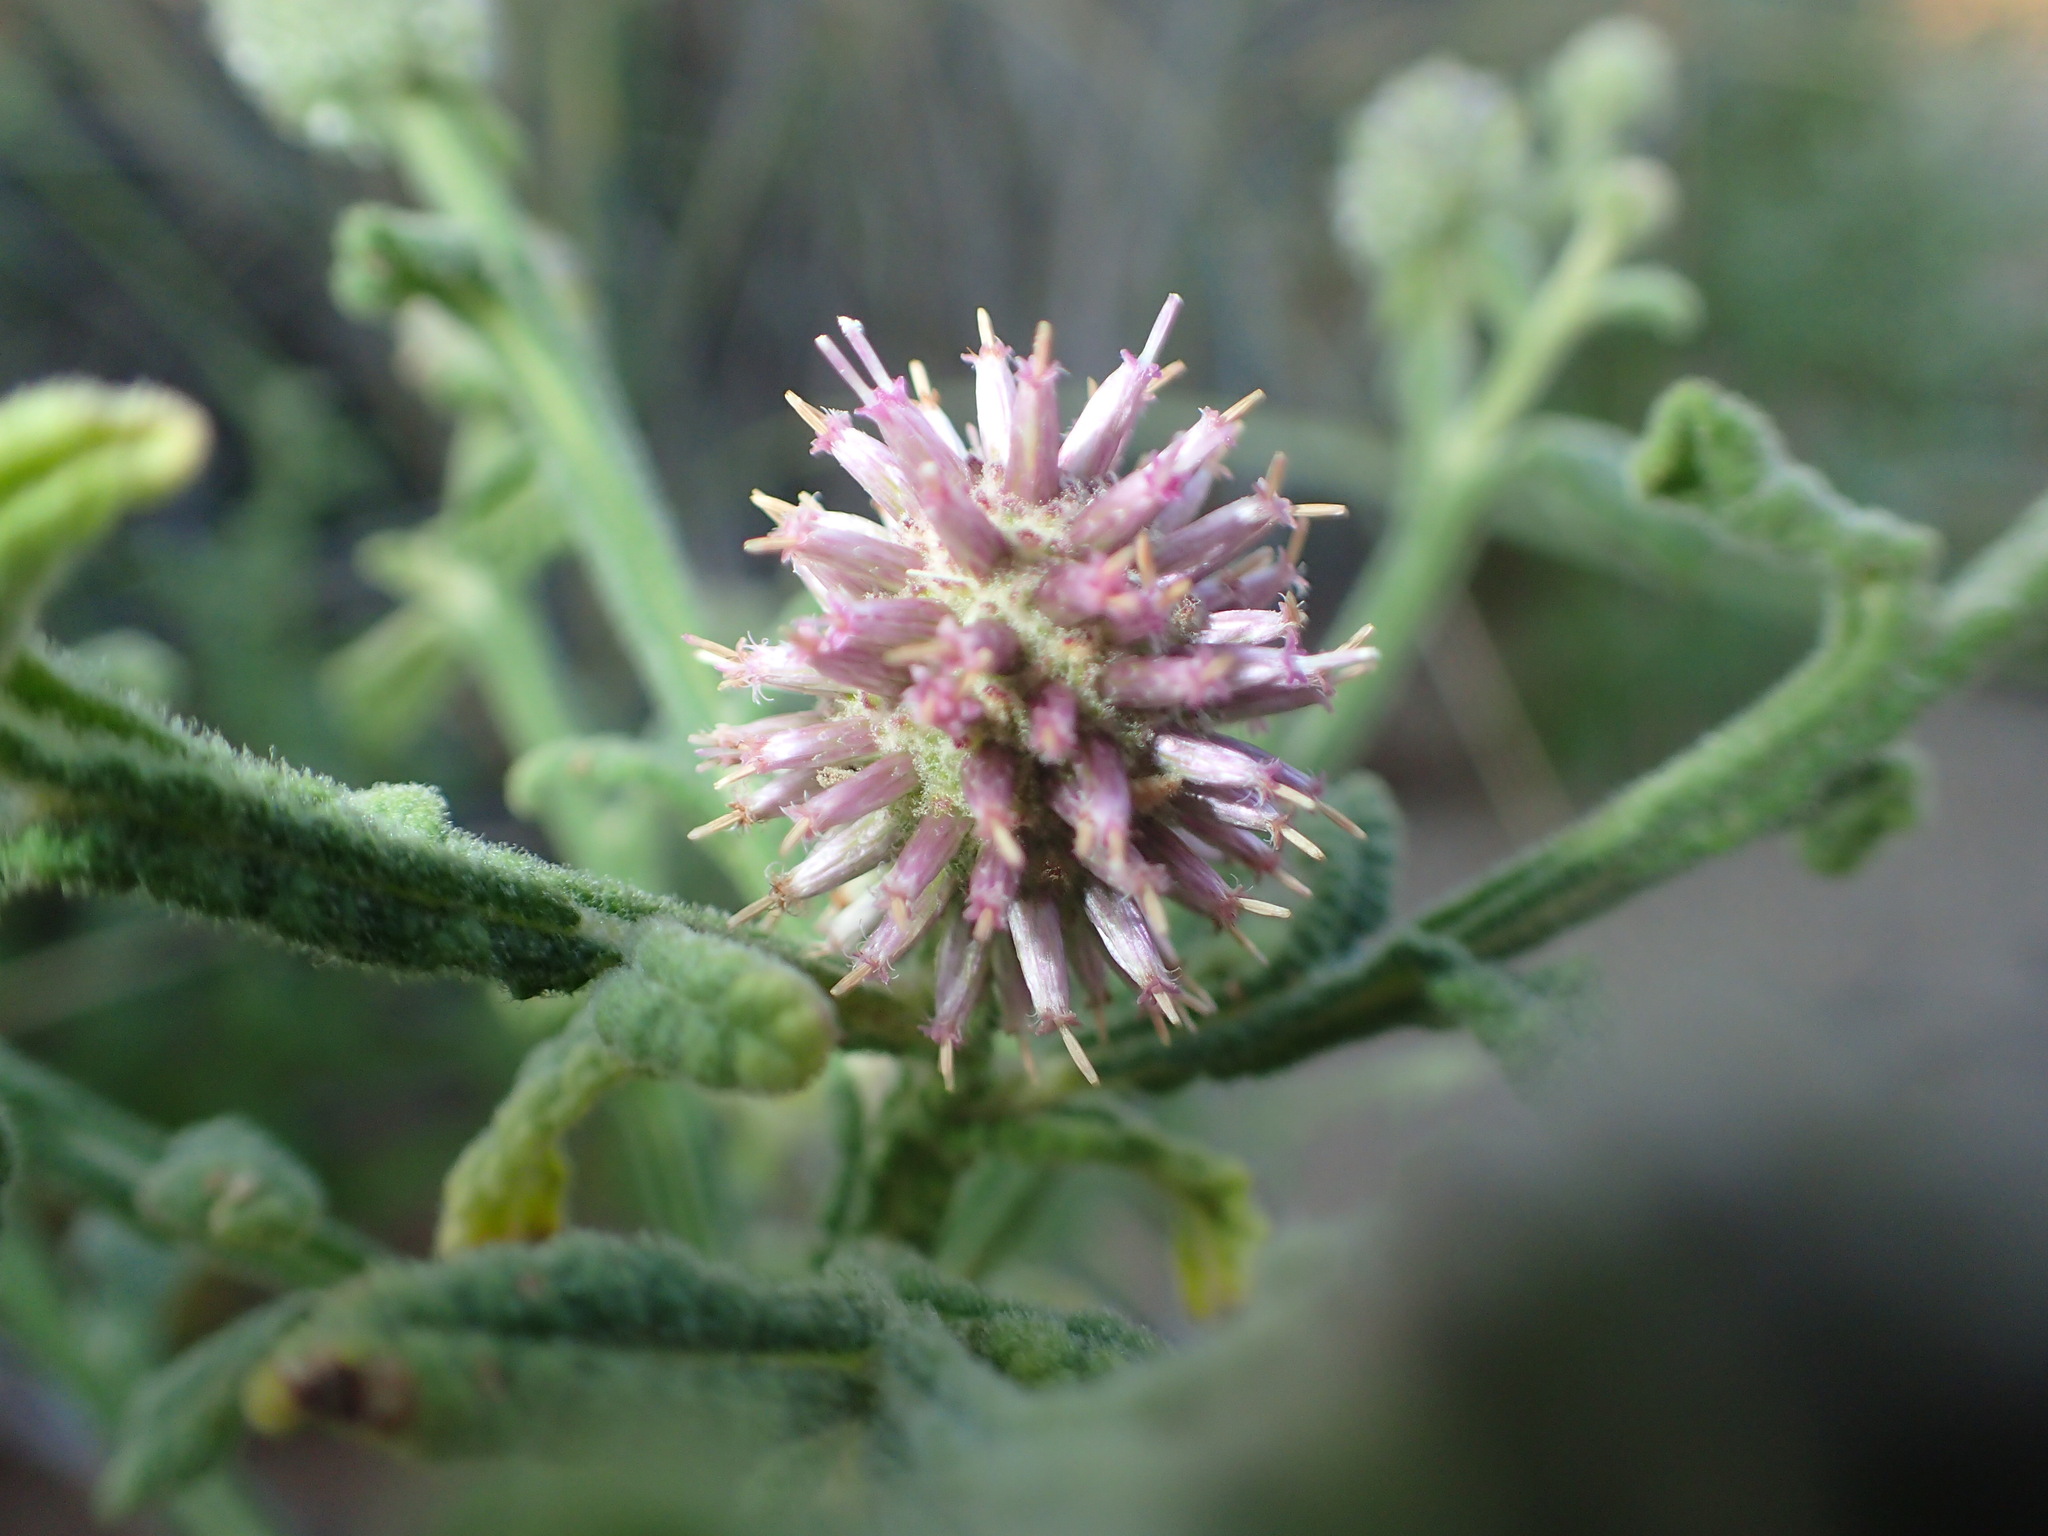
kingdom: Plantae
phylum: Tracheophyta
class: Magnoliopsida
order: Asterales
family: Asteraceae
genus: Pterocaulon
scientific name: Pterocaulon sphacelatum
